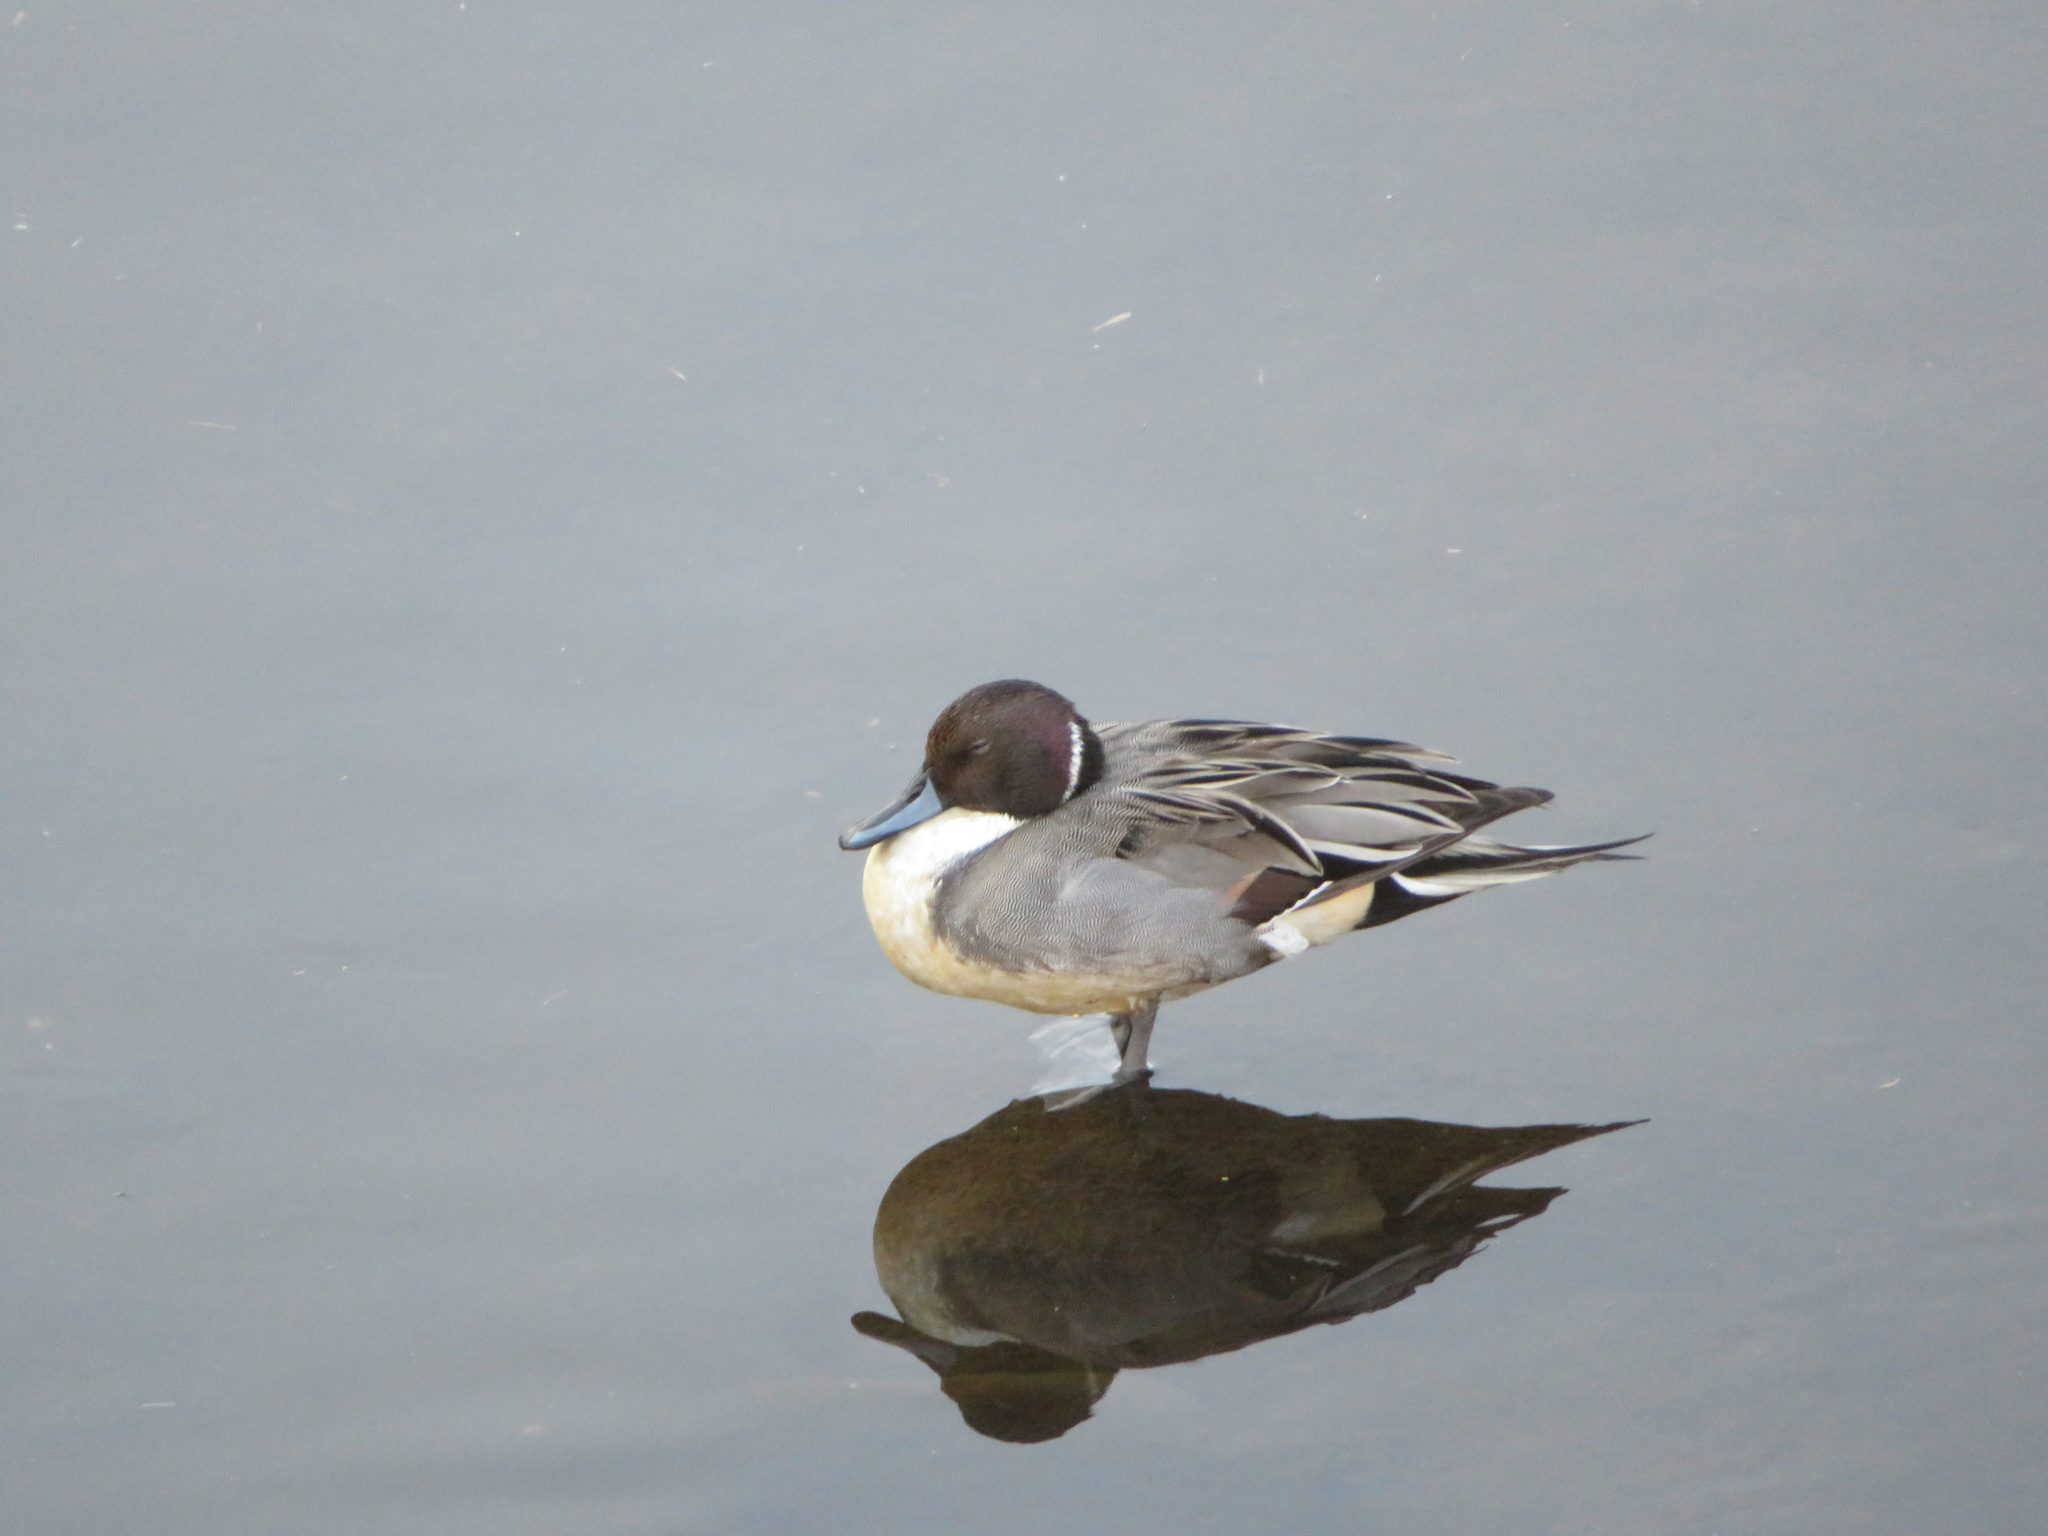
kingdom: Animalia
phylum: Chordata
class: Aves
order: Anseriformes
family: Anatidae
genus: Anas
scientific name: Anas acuta
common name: Northern pintail
